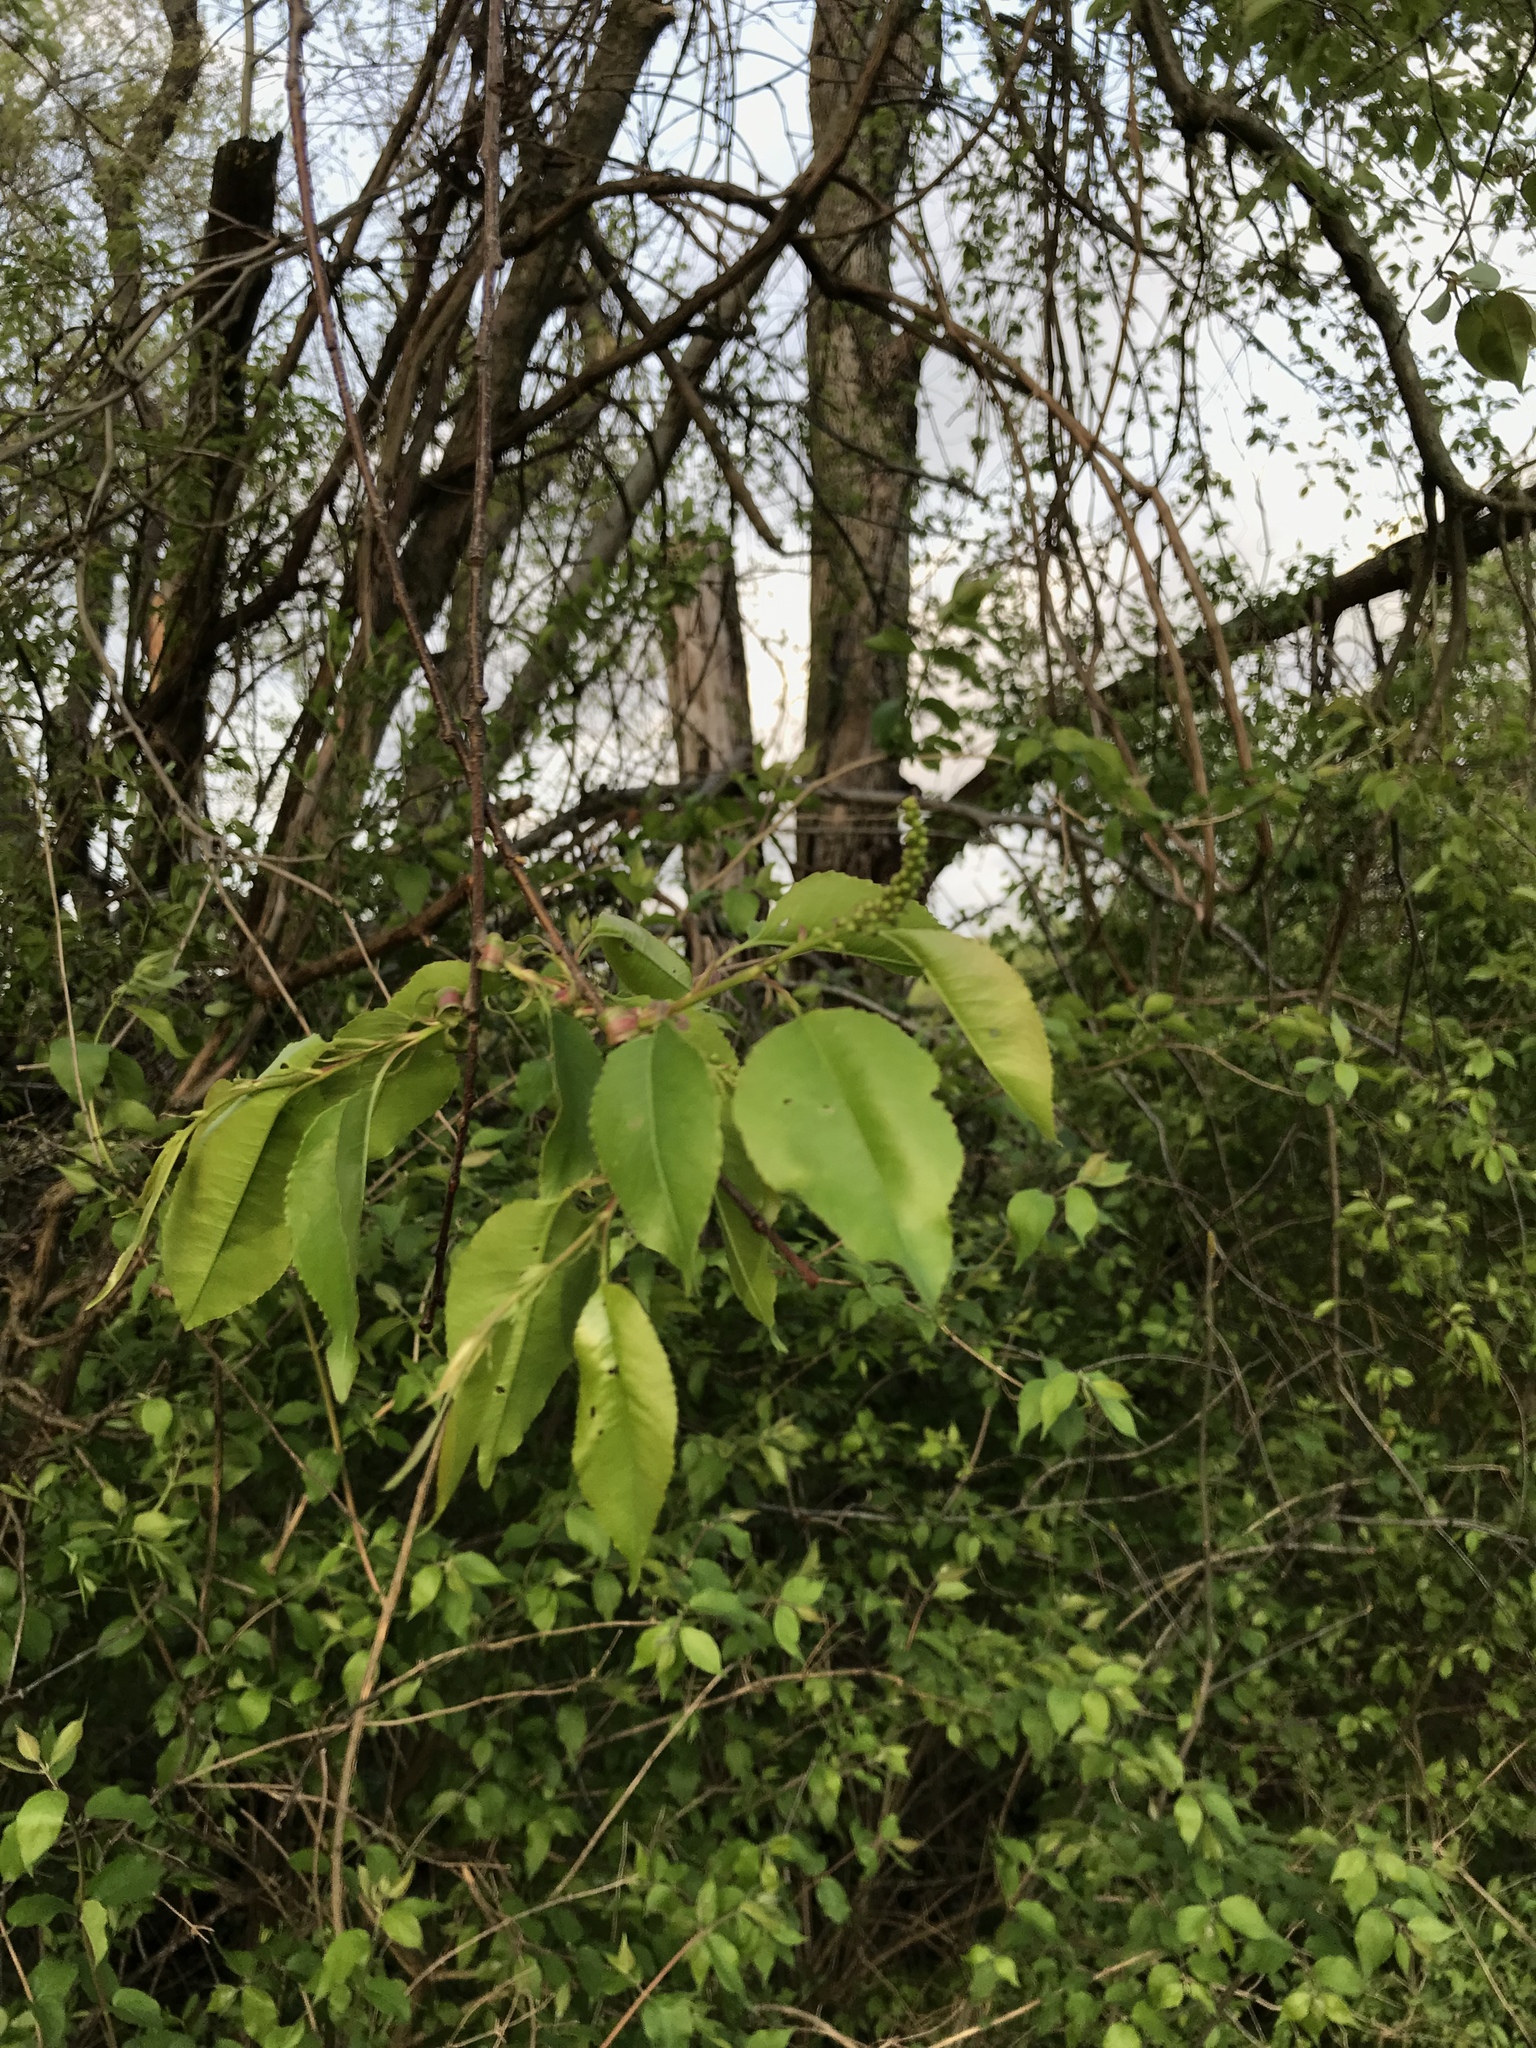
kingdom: Plantae
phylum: Tracheophyta
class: Magnoliopsida
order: Rosales
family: Rosaceae
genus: Prunus
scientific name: Prunus serotina
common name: Black cherry
